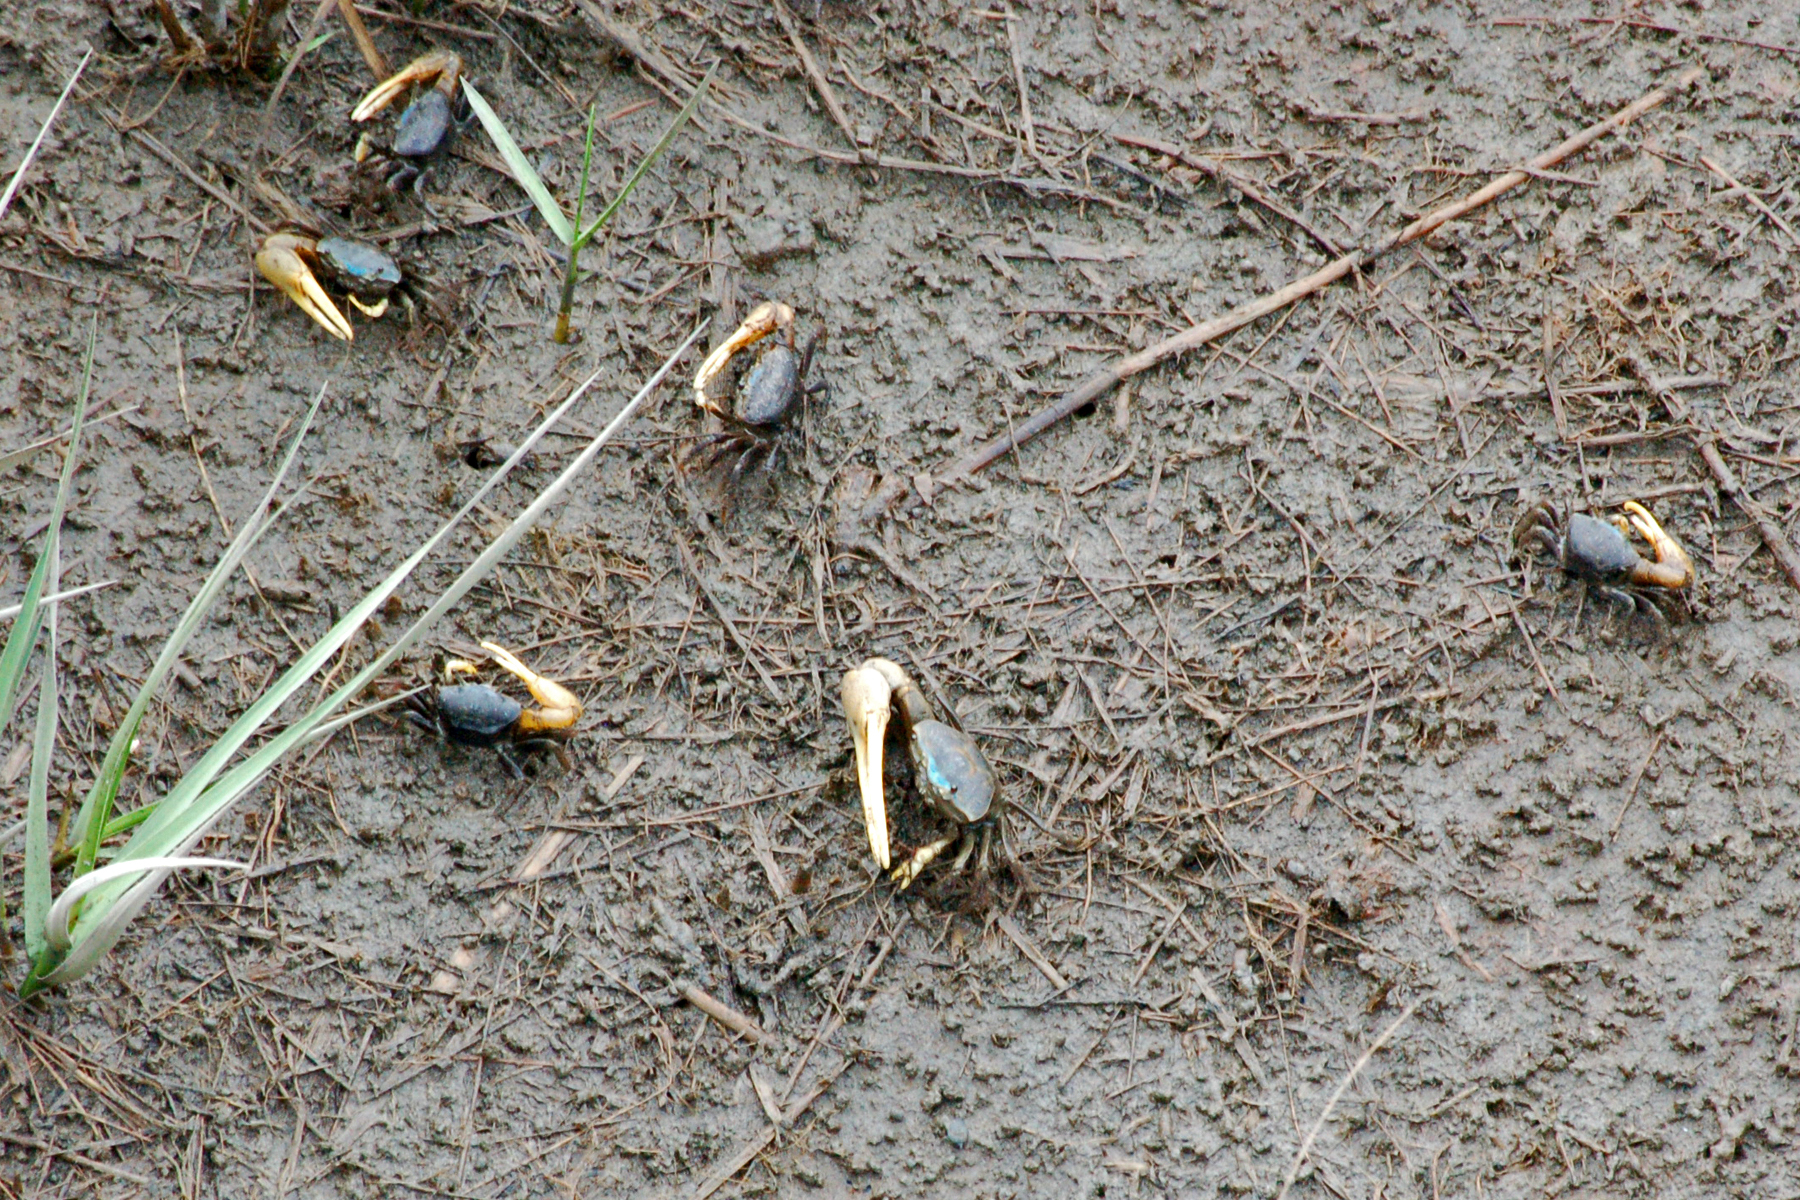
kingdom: Animalia
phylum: Arthropoda
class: Malacostraca
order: Decapoda
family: Ocypodidae
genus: Minuca
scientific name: Minuca pugnax
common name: Mud fiddler crab
